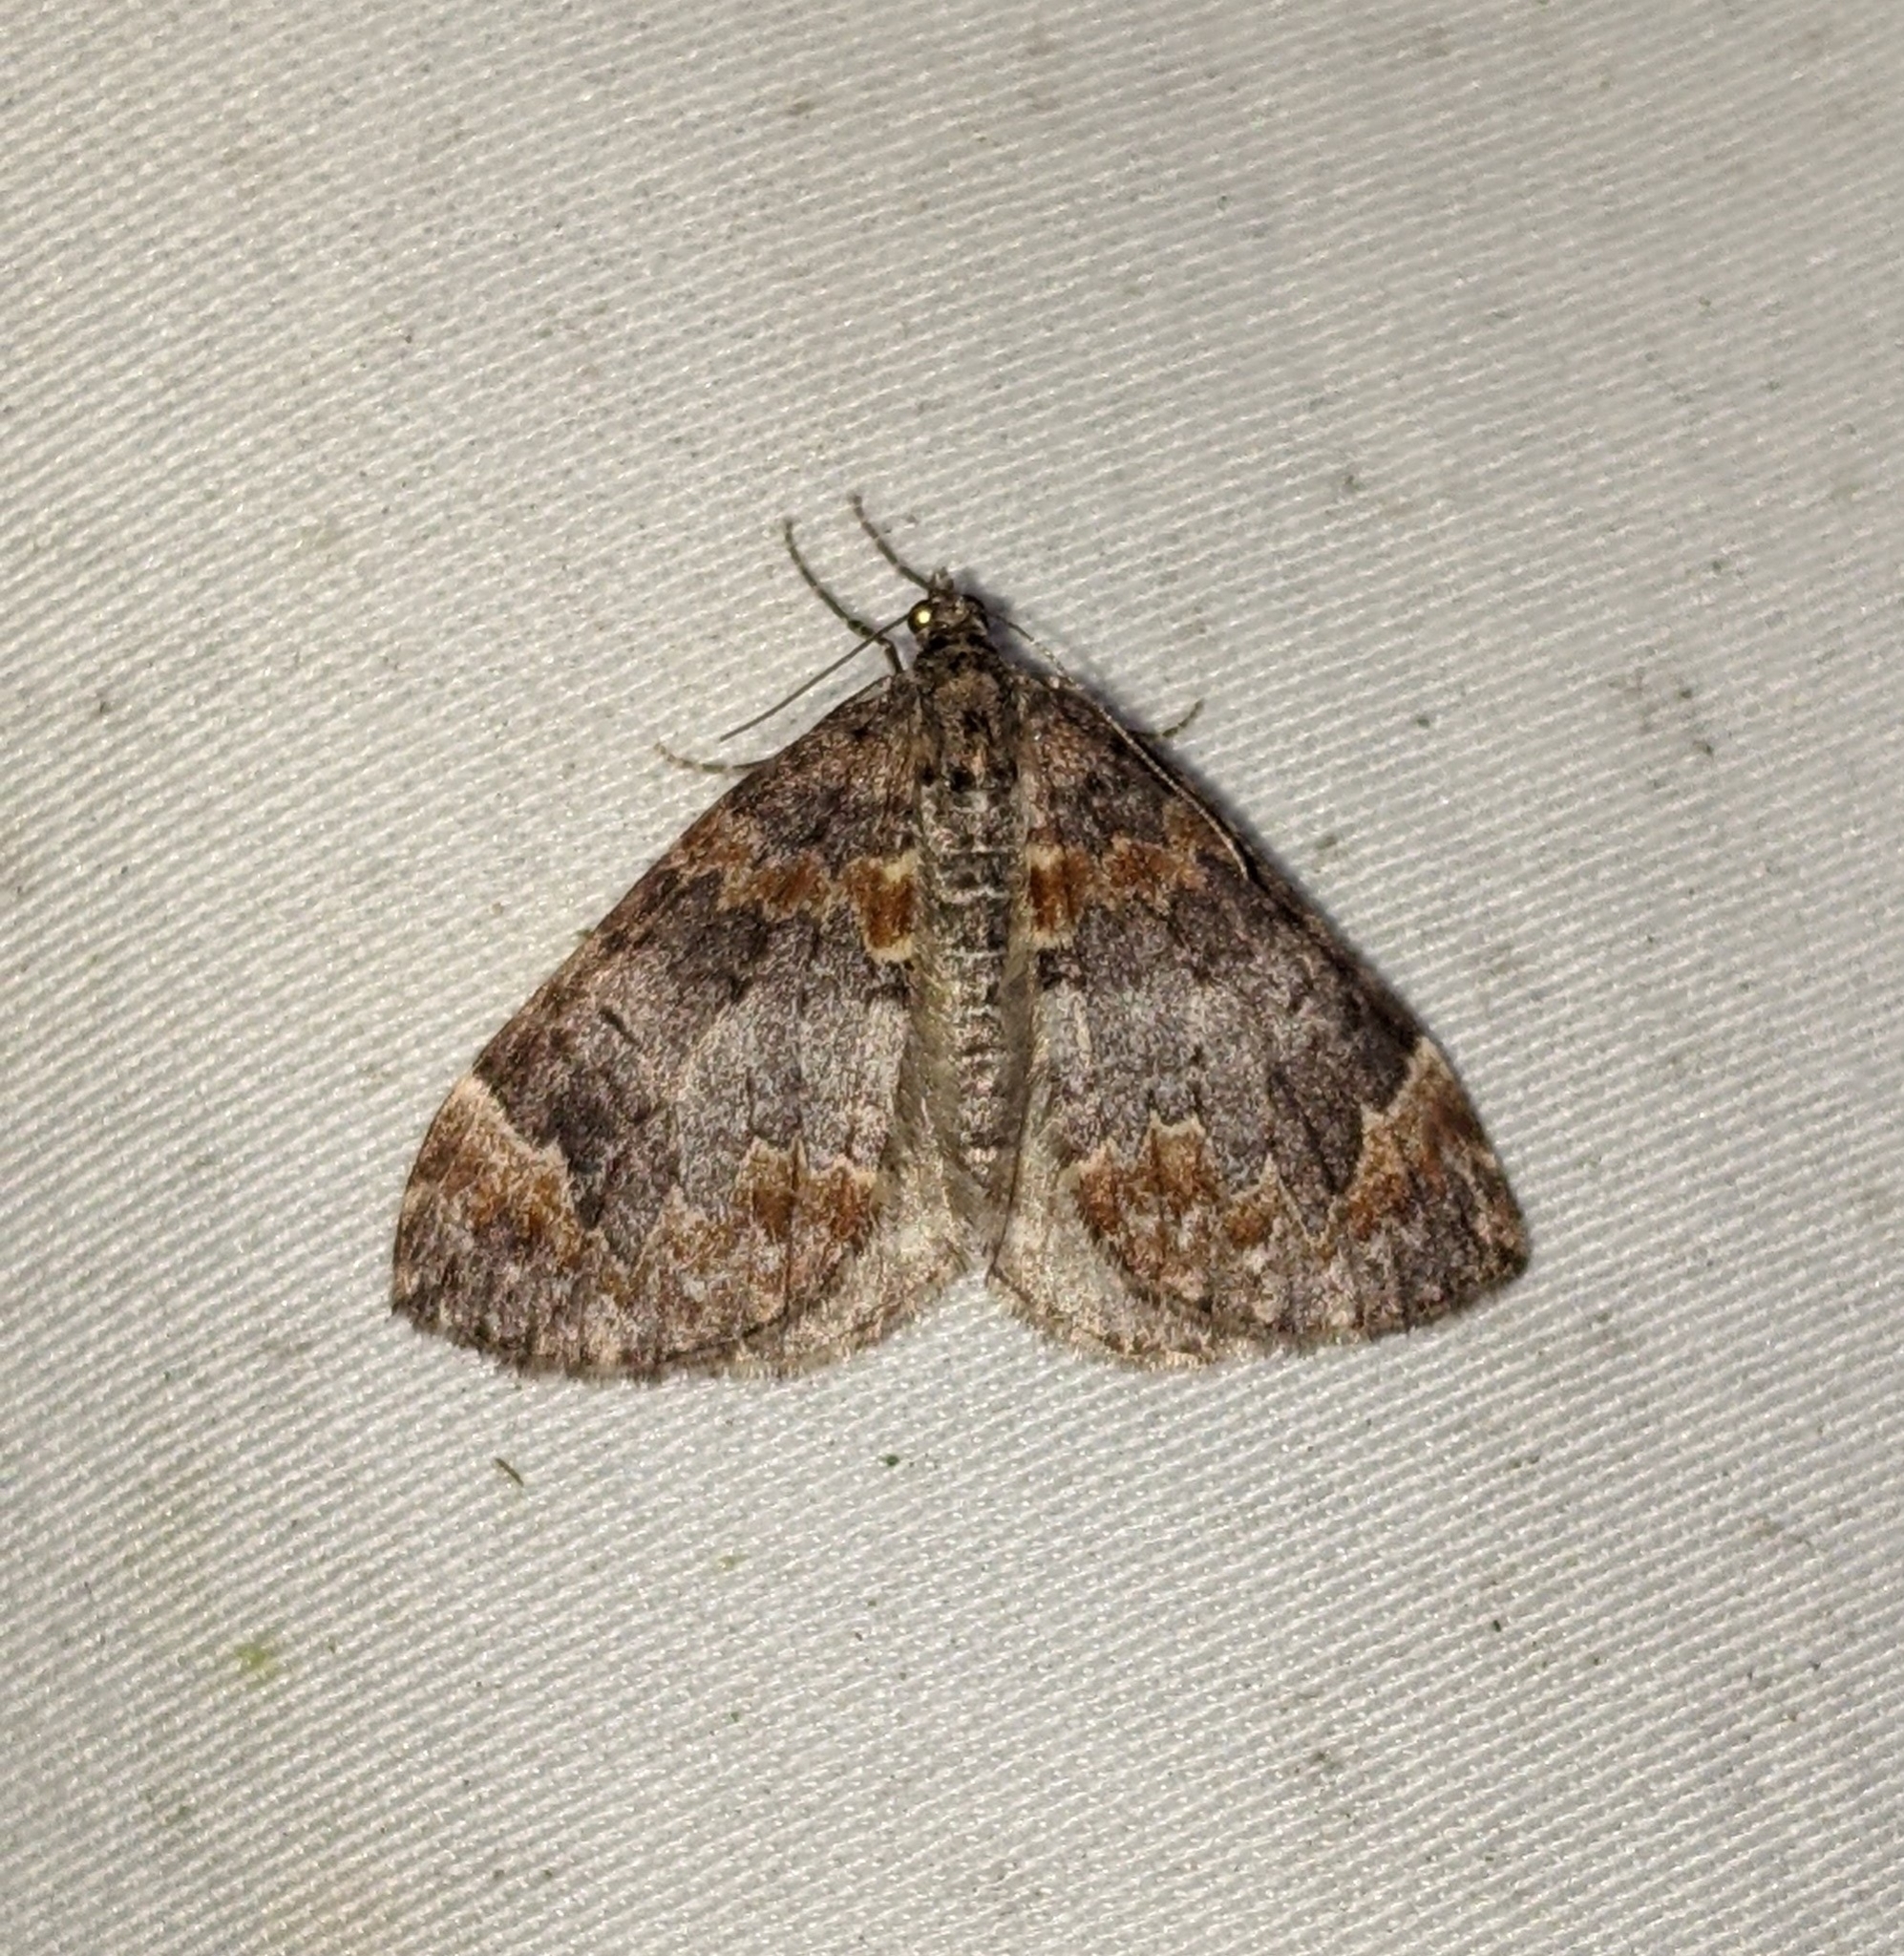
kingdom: Animalia
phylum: Arthropoda
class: Insecta
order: Lepidoptera
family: Geometridae
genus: Dysstroma
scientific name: Dysstroma citrata
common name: Dark marbled carpet
